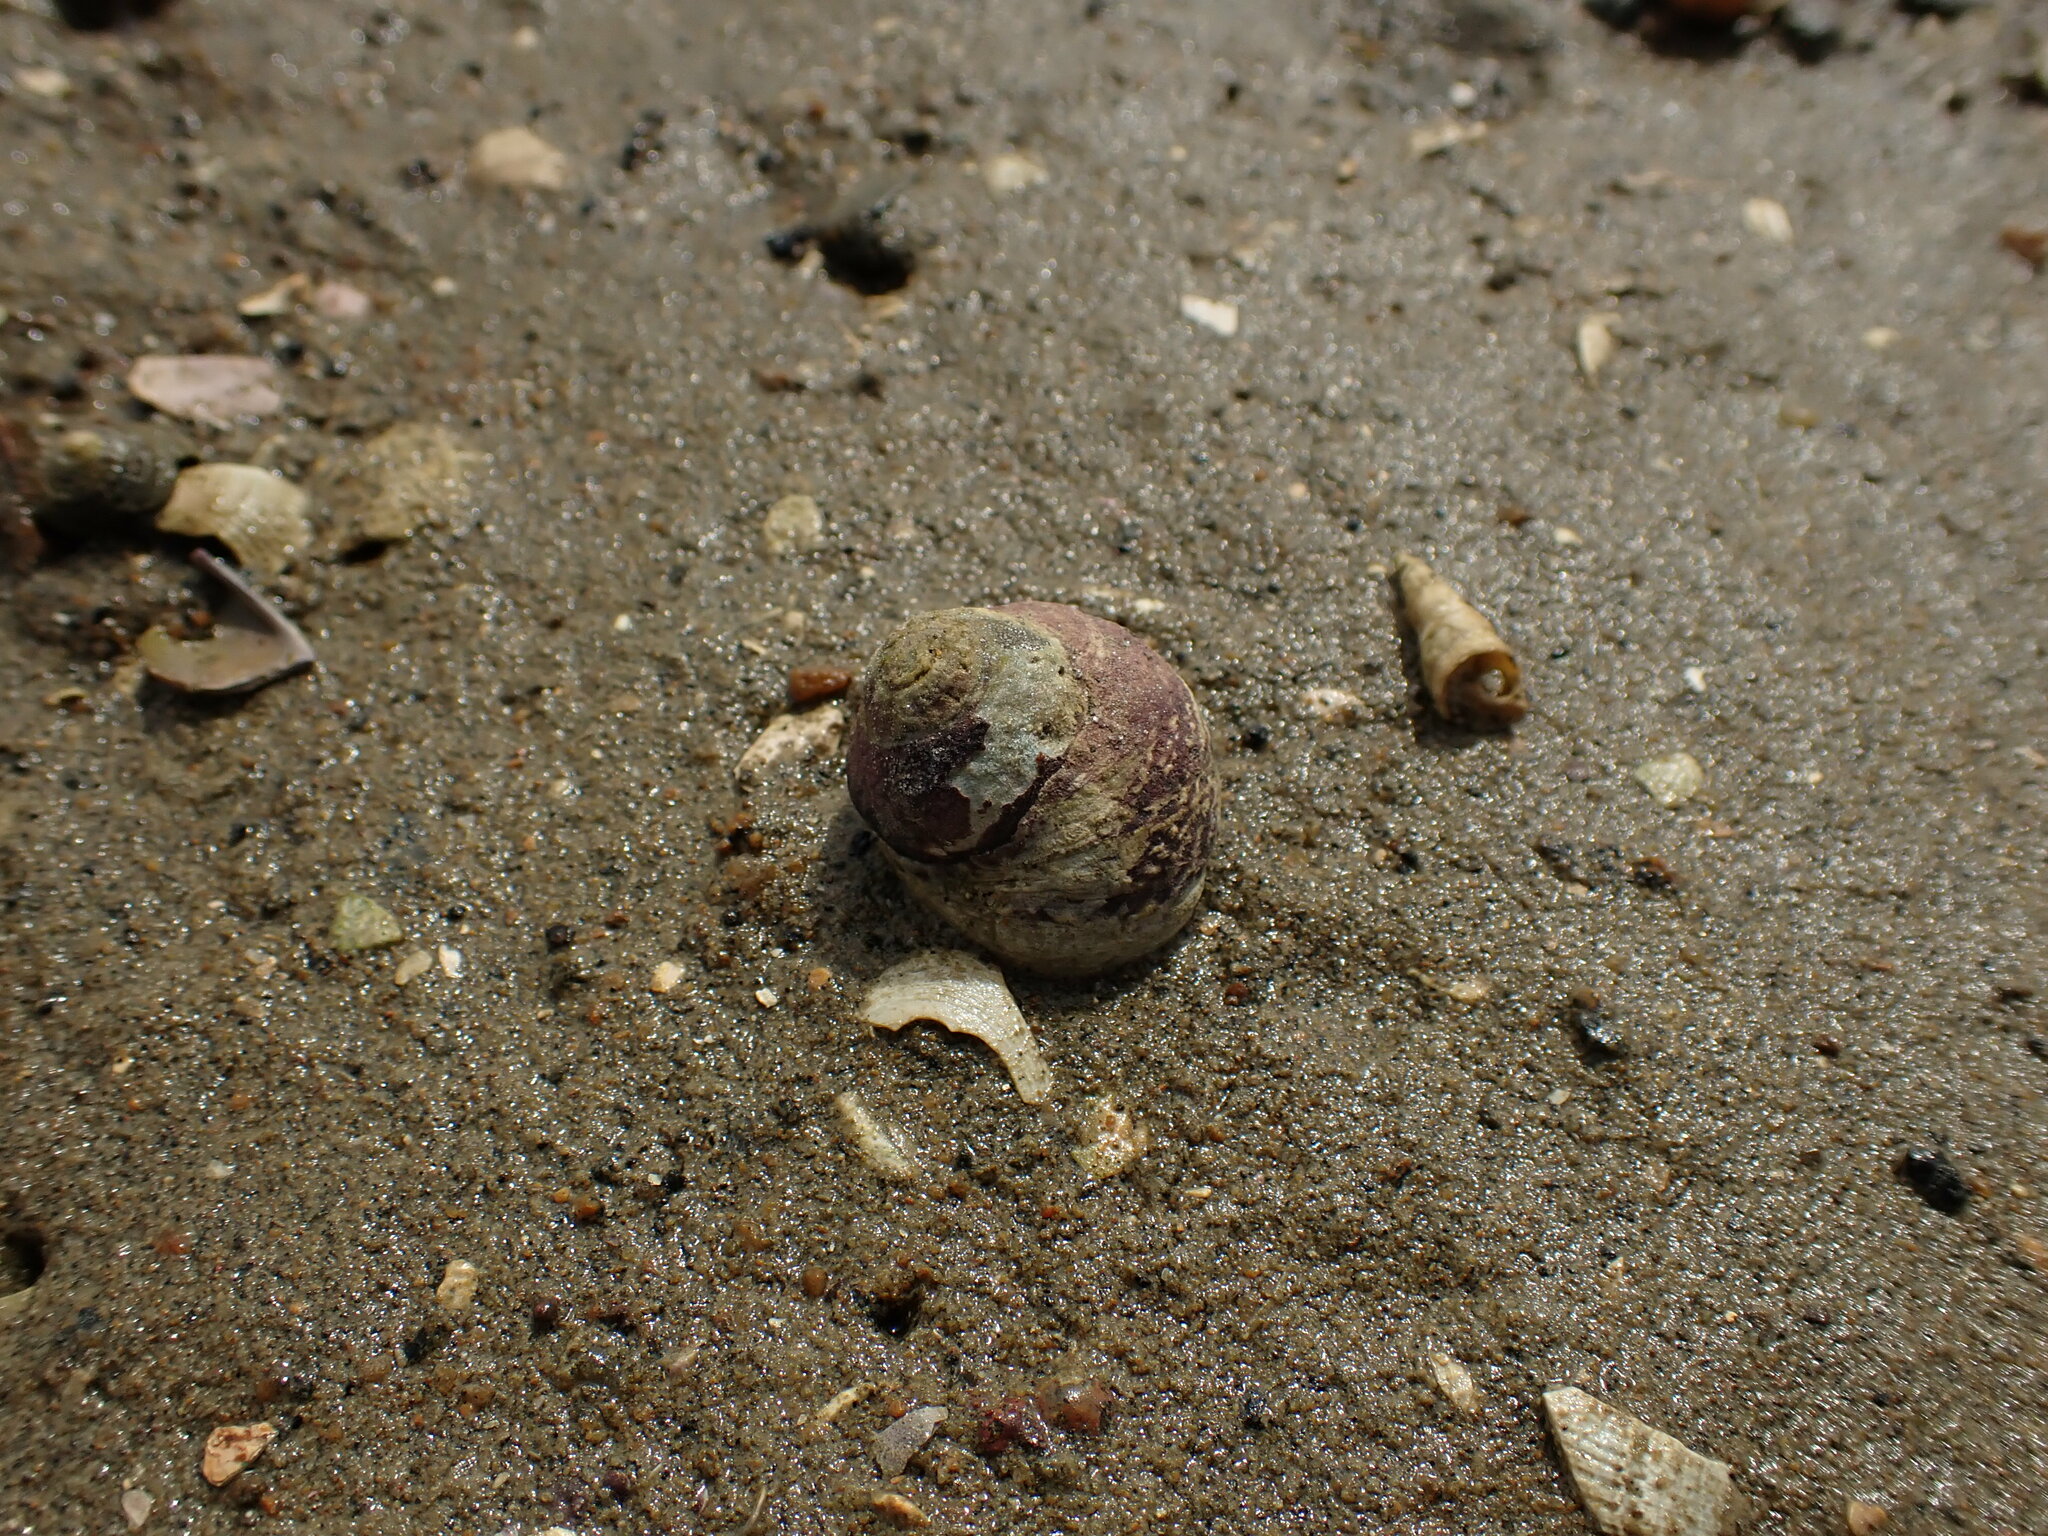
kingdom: Animalia
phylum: Mollusca
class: Gastropoda
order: Trochida
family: Trochidae
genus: Diloma
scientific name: Diloma subrostratum
